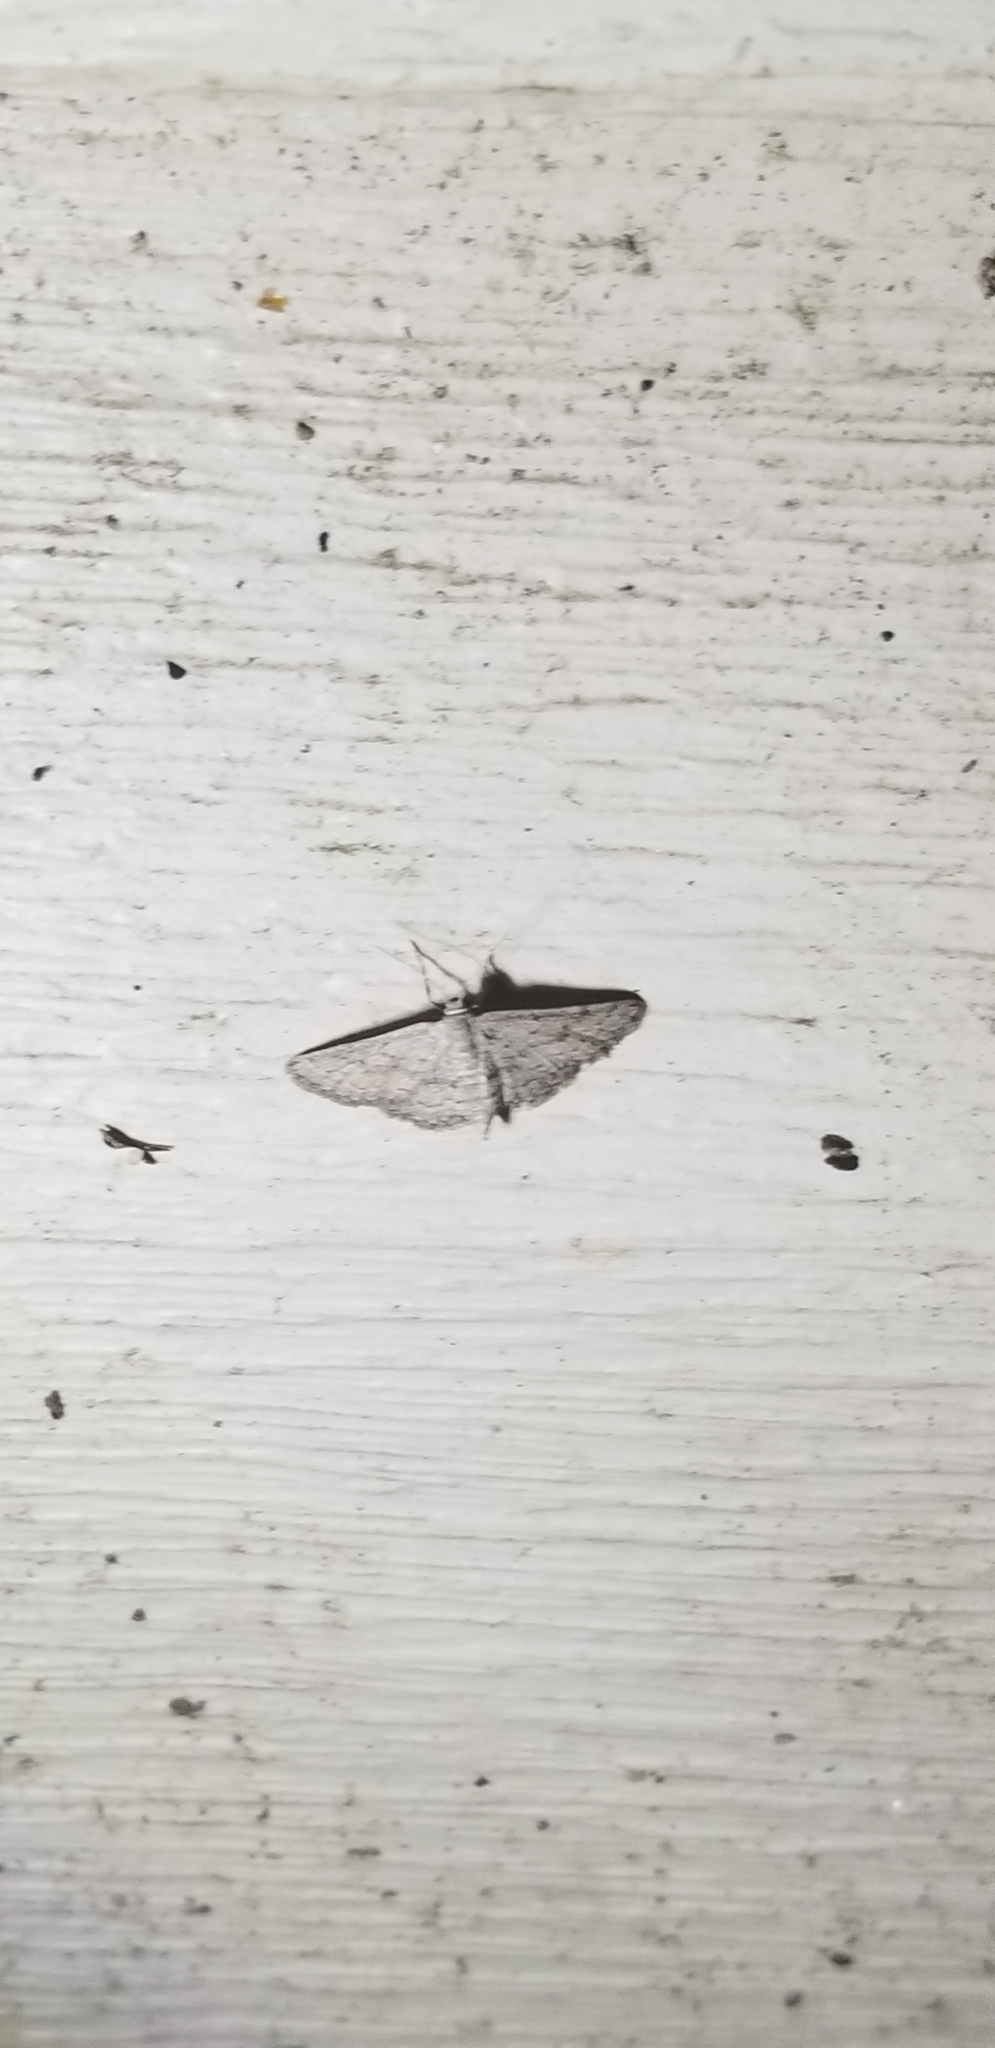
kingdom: Animalia
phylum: Arthropoda
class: Insecta
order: Lepidoptera
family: Geometridae
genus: Lobocleta
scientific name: Lobocleta ossularia
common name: Drab brown wave
